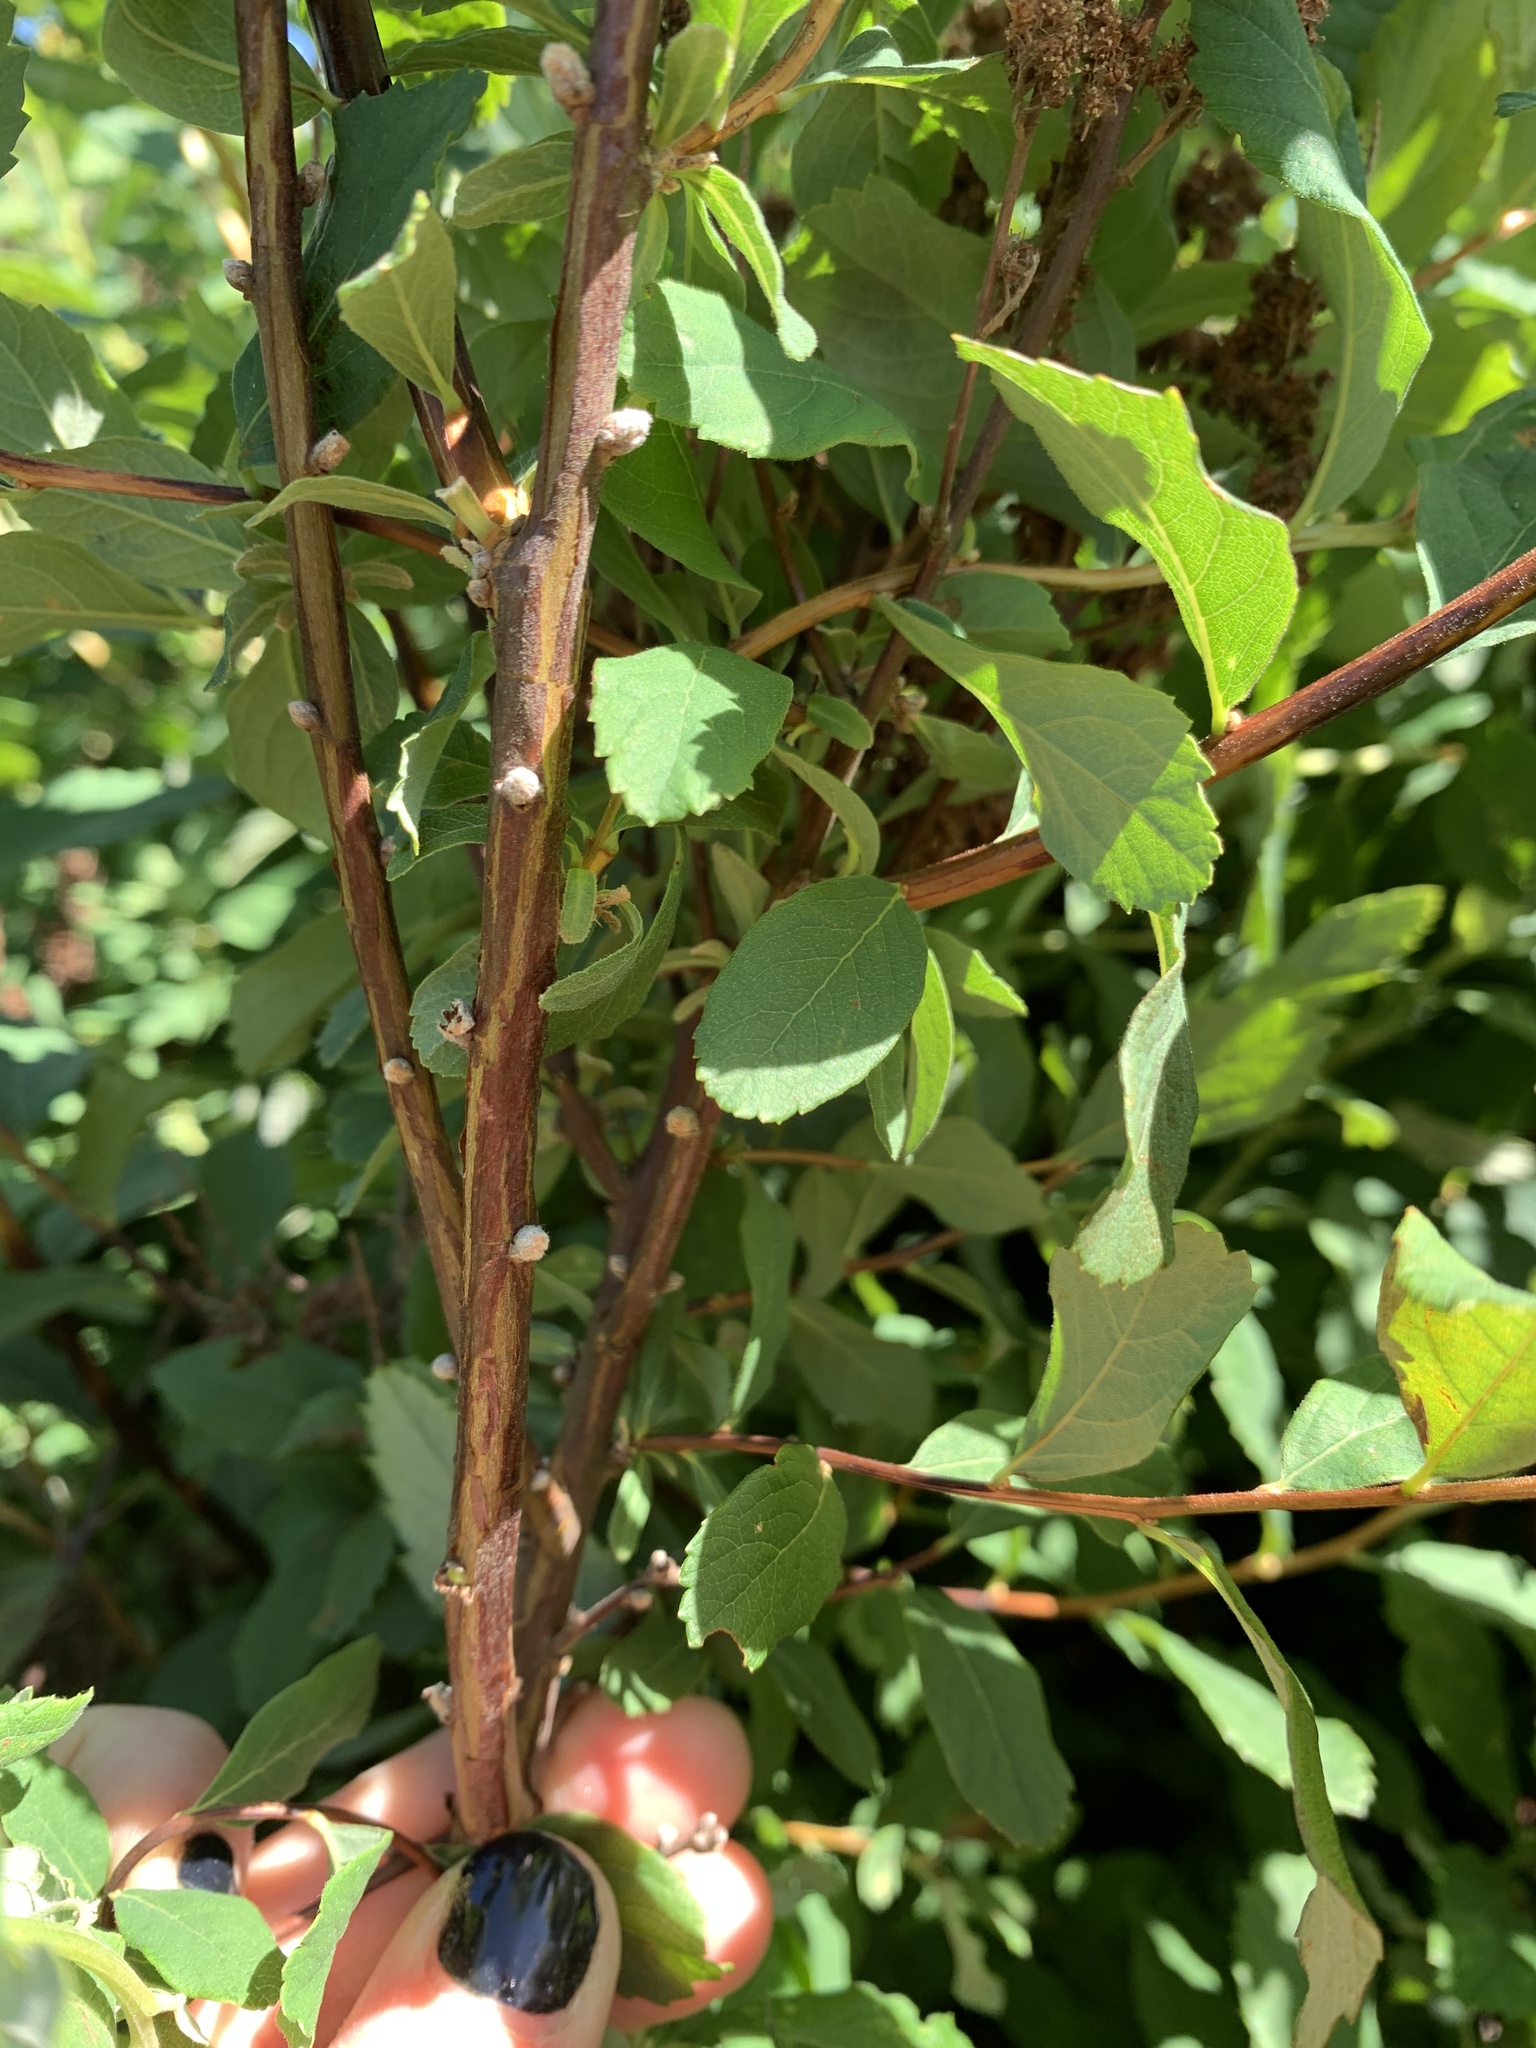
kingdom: Plantae
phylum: Tracheophyta
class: Magnoliopsida
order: Rosales
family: Rosaceae
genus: Spiraea
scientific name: Spiraea douglasii
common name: Steeplebush
